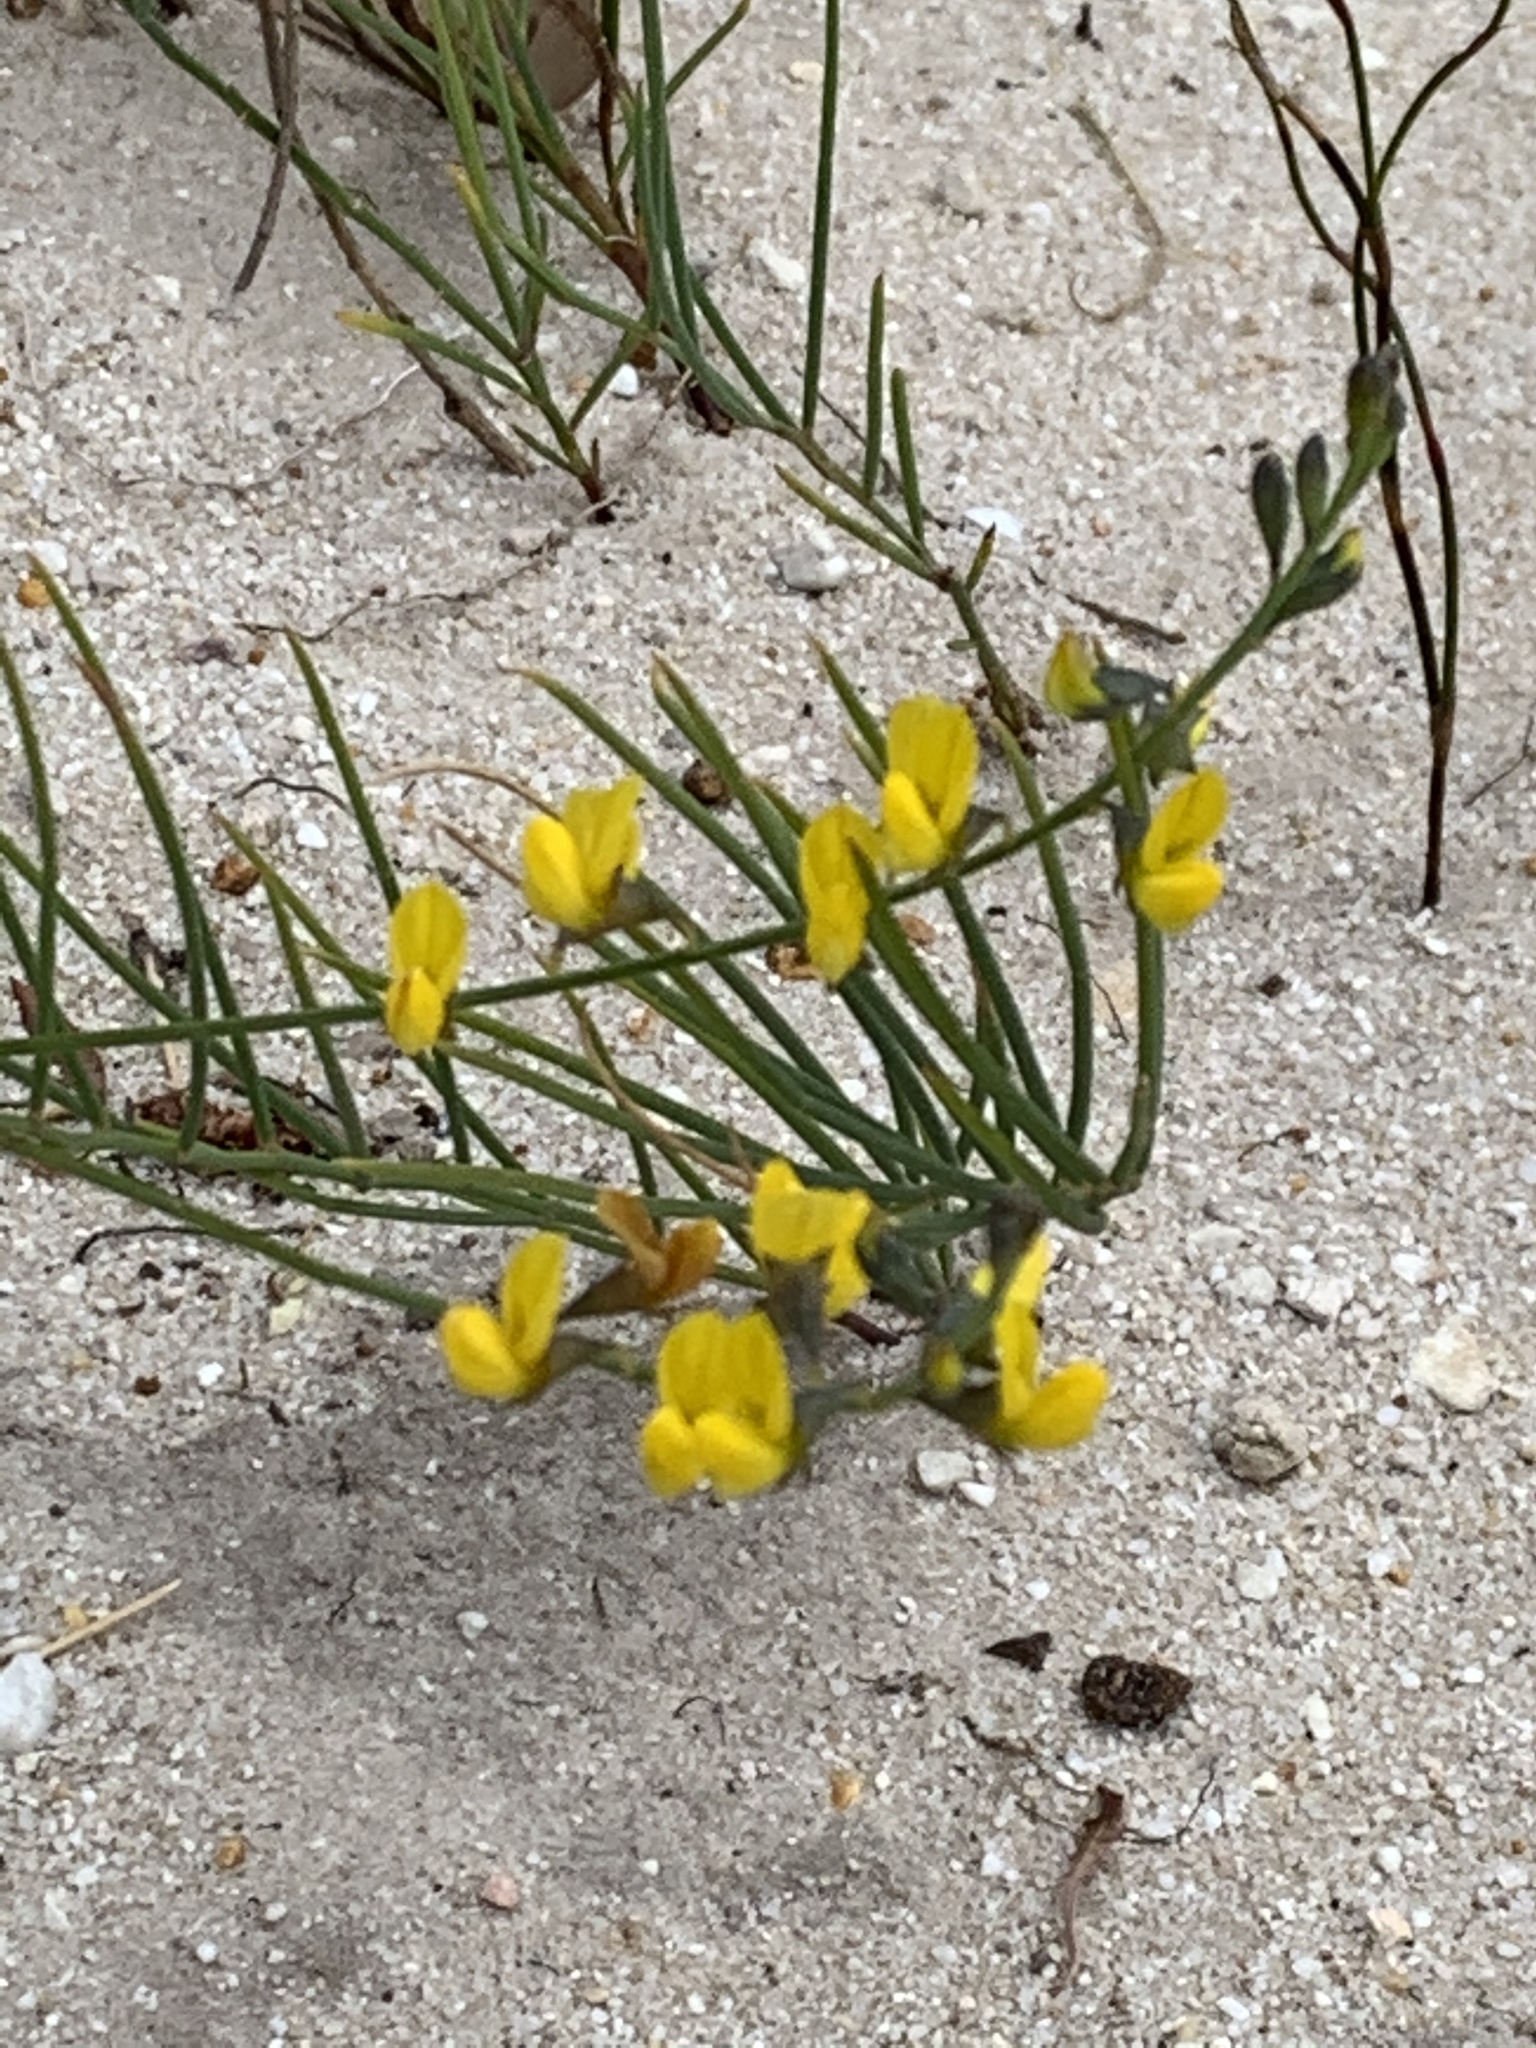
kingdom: Plantae
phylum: Tracheophyta
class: Magnoliopsida
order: Fabales
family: Fabaceae
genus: Lebeckia
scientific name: Lebeckia contaminata
